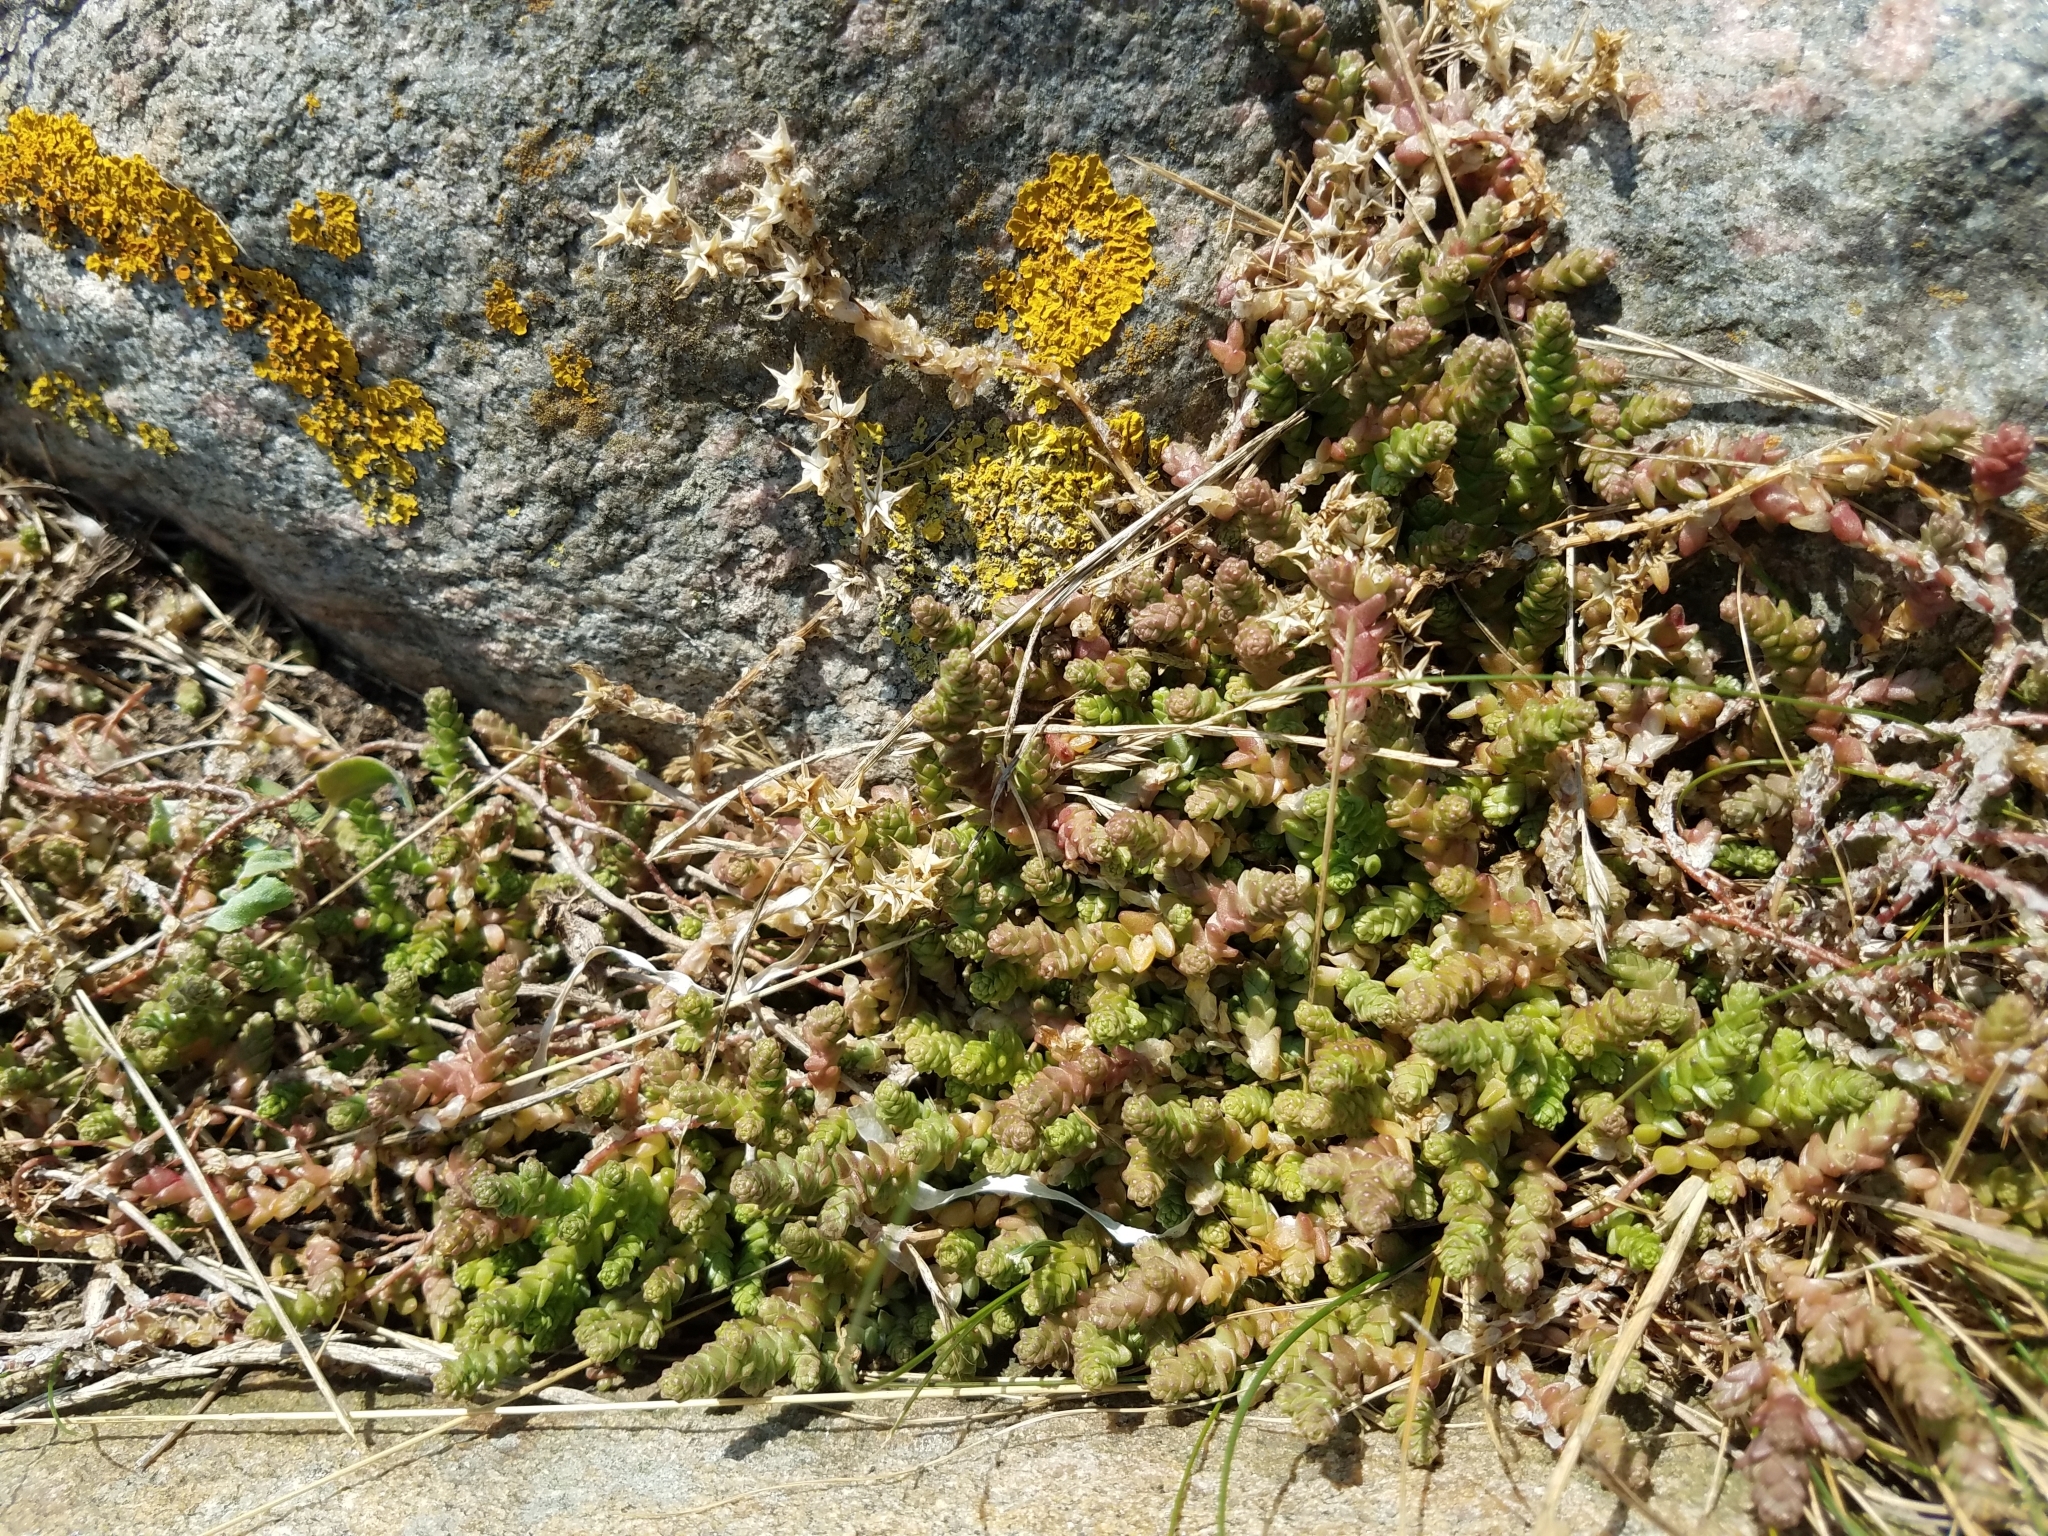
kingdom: Plantae
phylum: Tracheophyta
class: Magnoliopsida
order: Saxifragales
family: Crassulaceae
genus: Sedum
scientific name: Sedum acre
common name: Biting stonecrop
